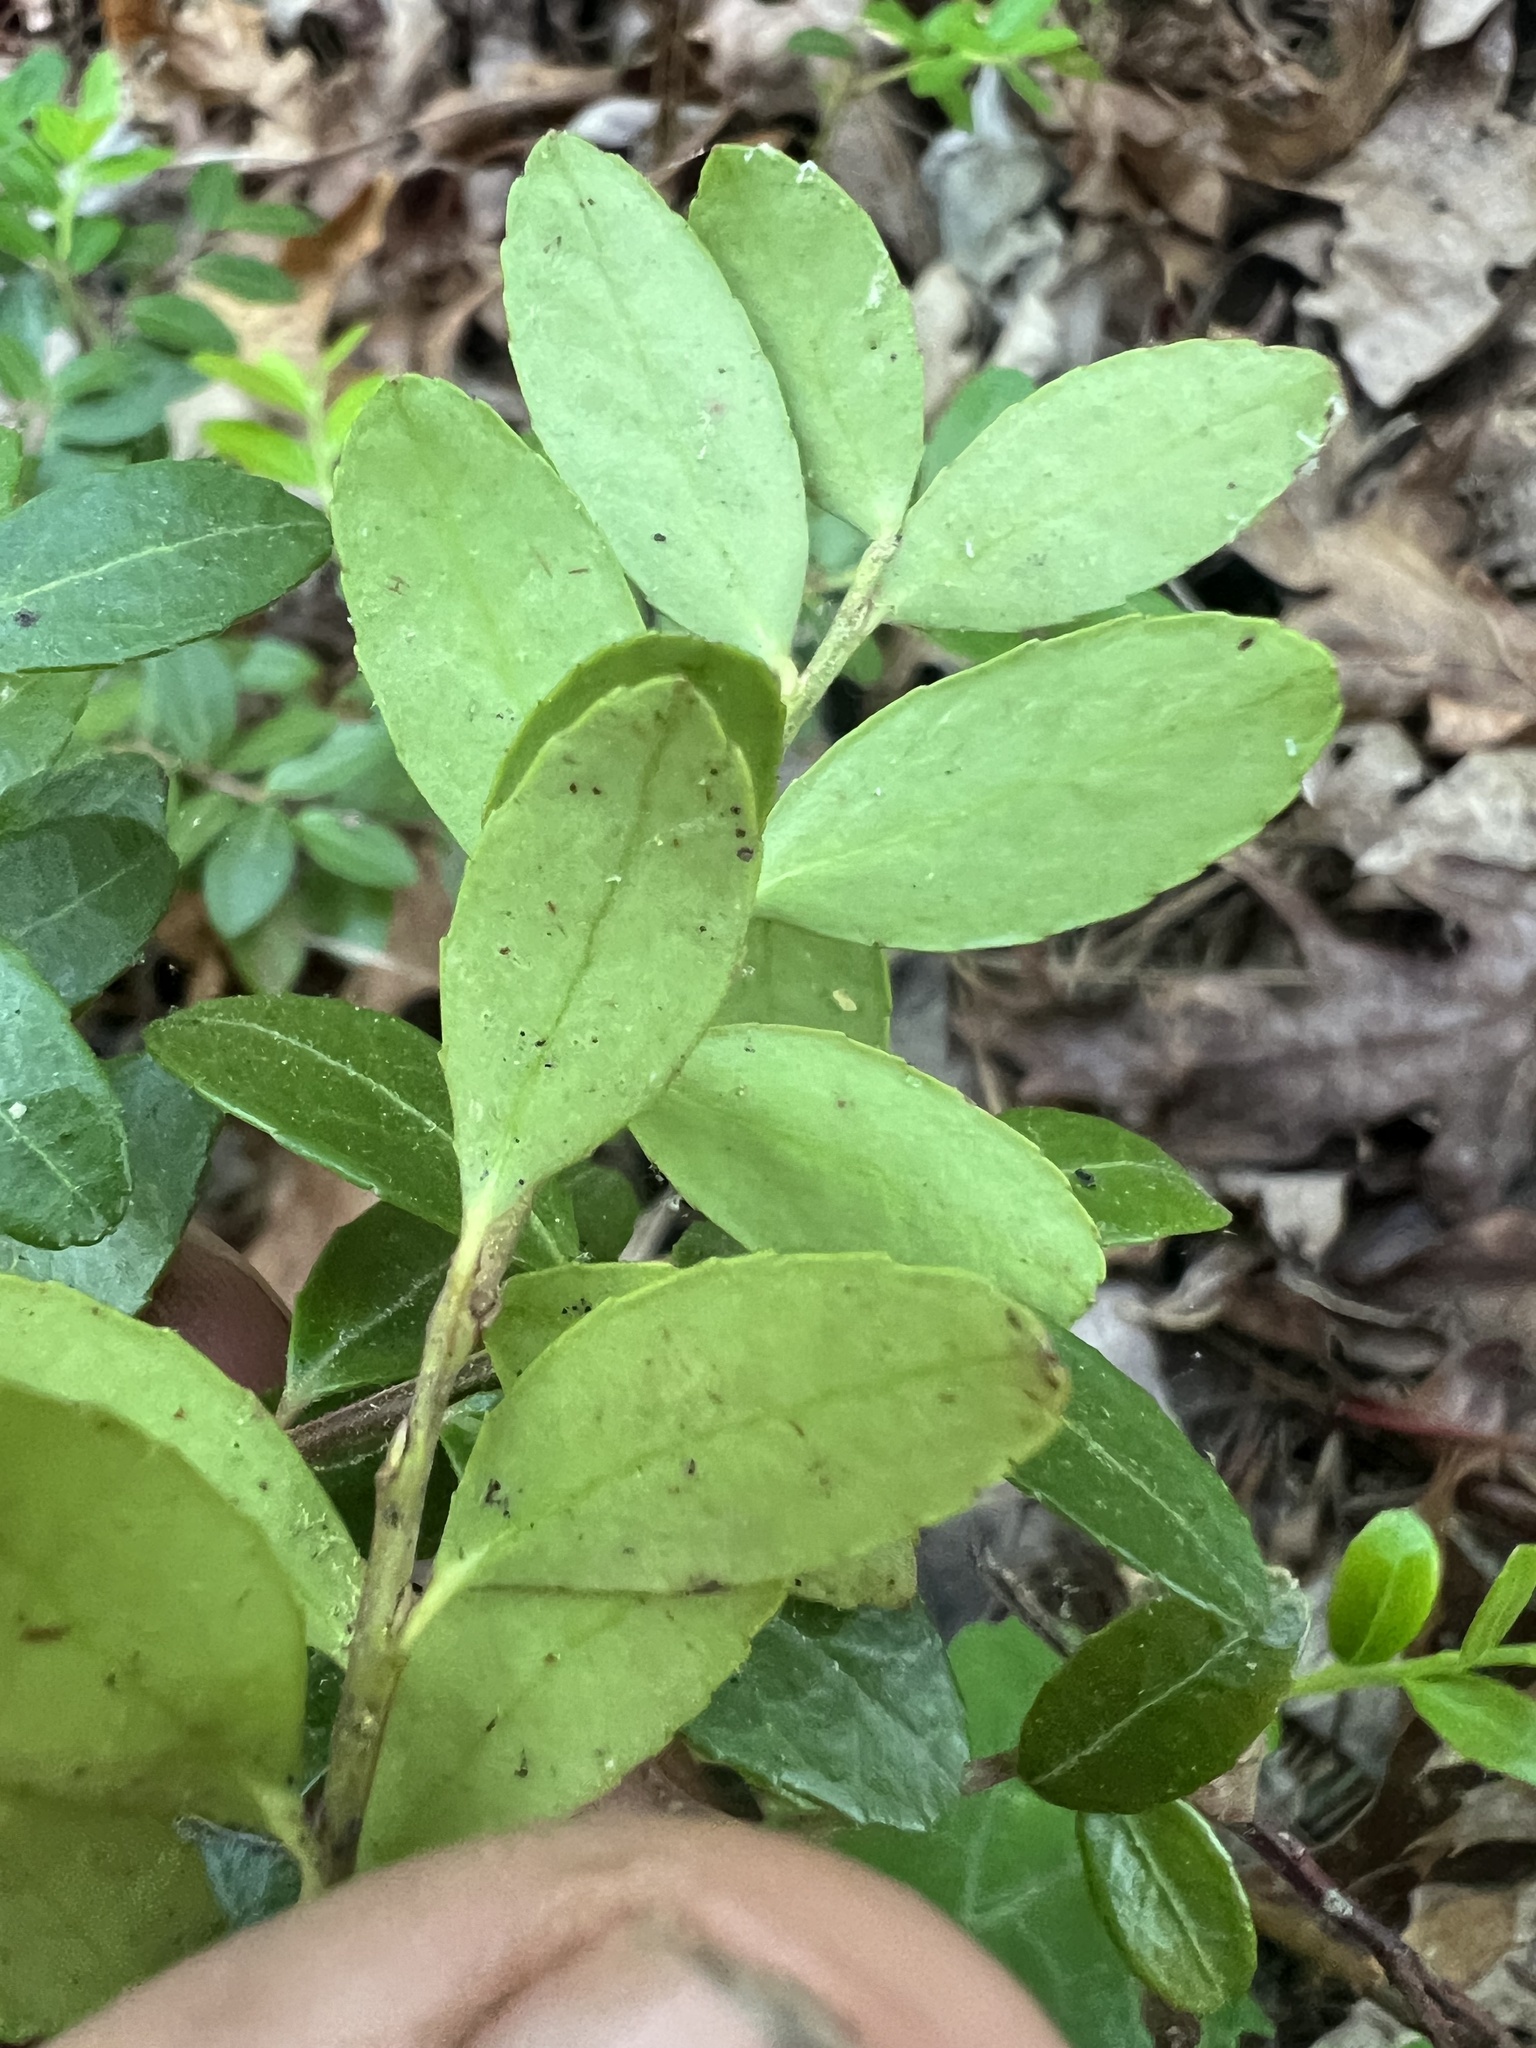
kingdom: Plantae
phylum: Tracheophyta
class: Magnoliopsida
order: Ericales
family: Ericaceae
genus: Gaylussacia
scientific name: Gaylussacia brachycera
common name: Box huckleberry
